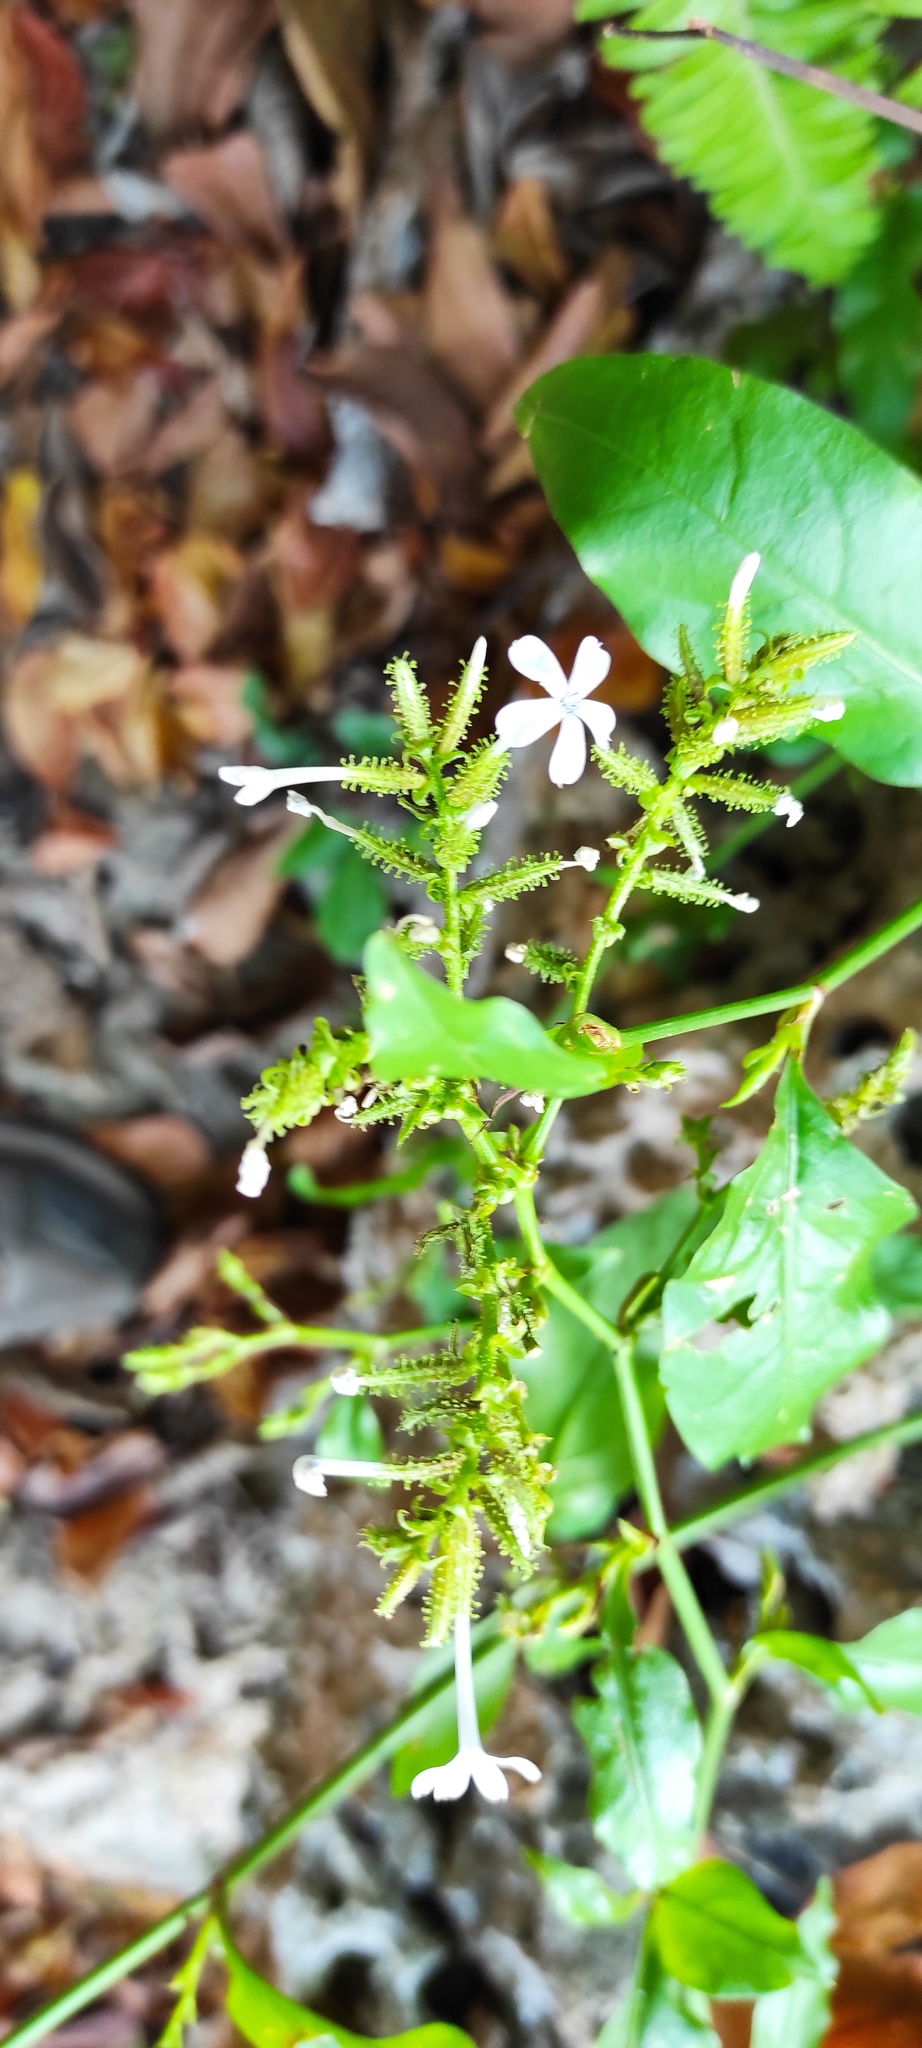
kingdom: Plantae
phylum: Tracheophyta
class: Magnoliopsida
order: Caryophyllales
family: Plumbaginaceae
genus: Plumbago
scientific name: Plumbago zeylanica
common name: Doctorbush
